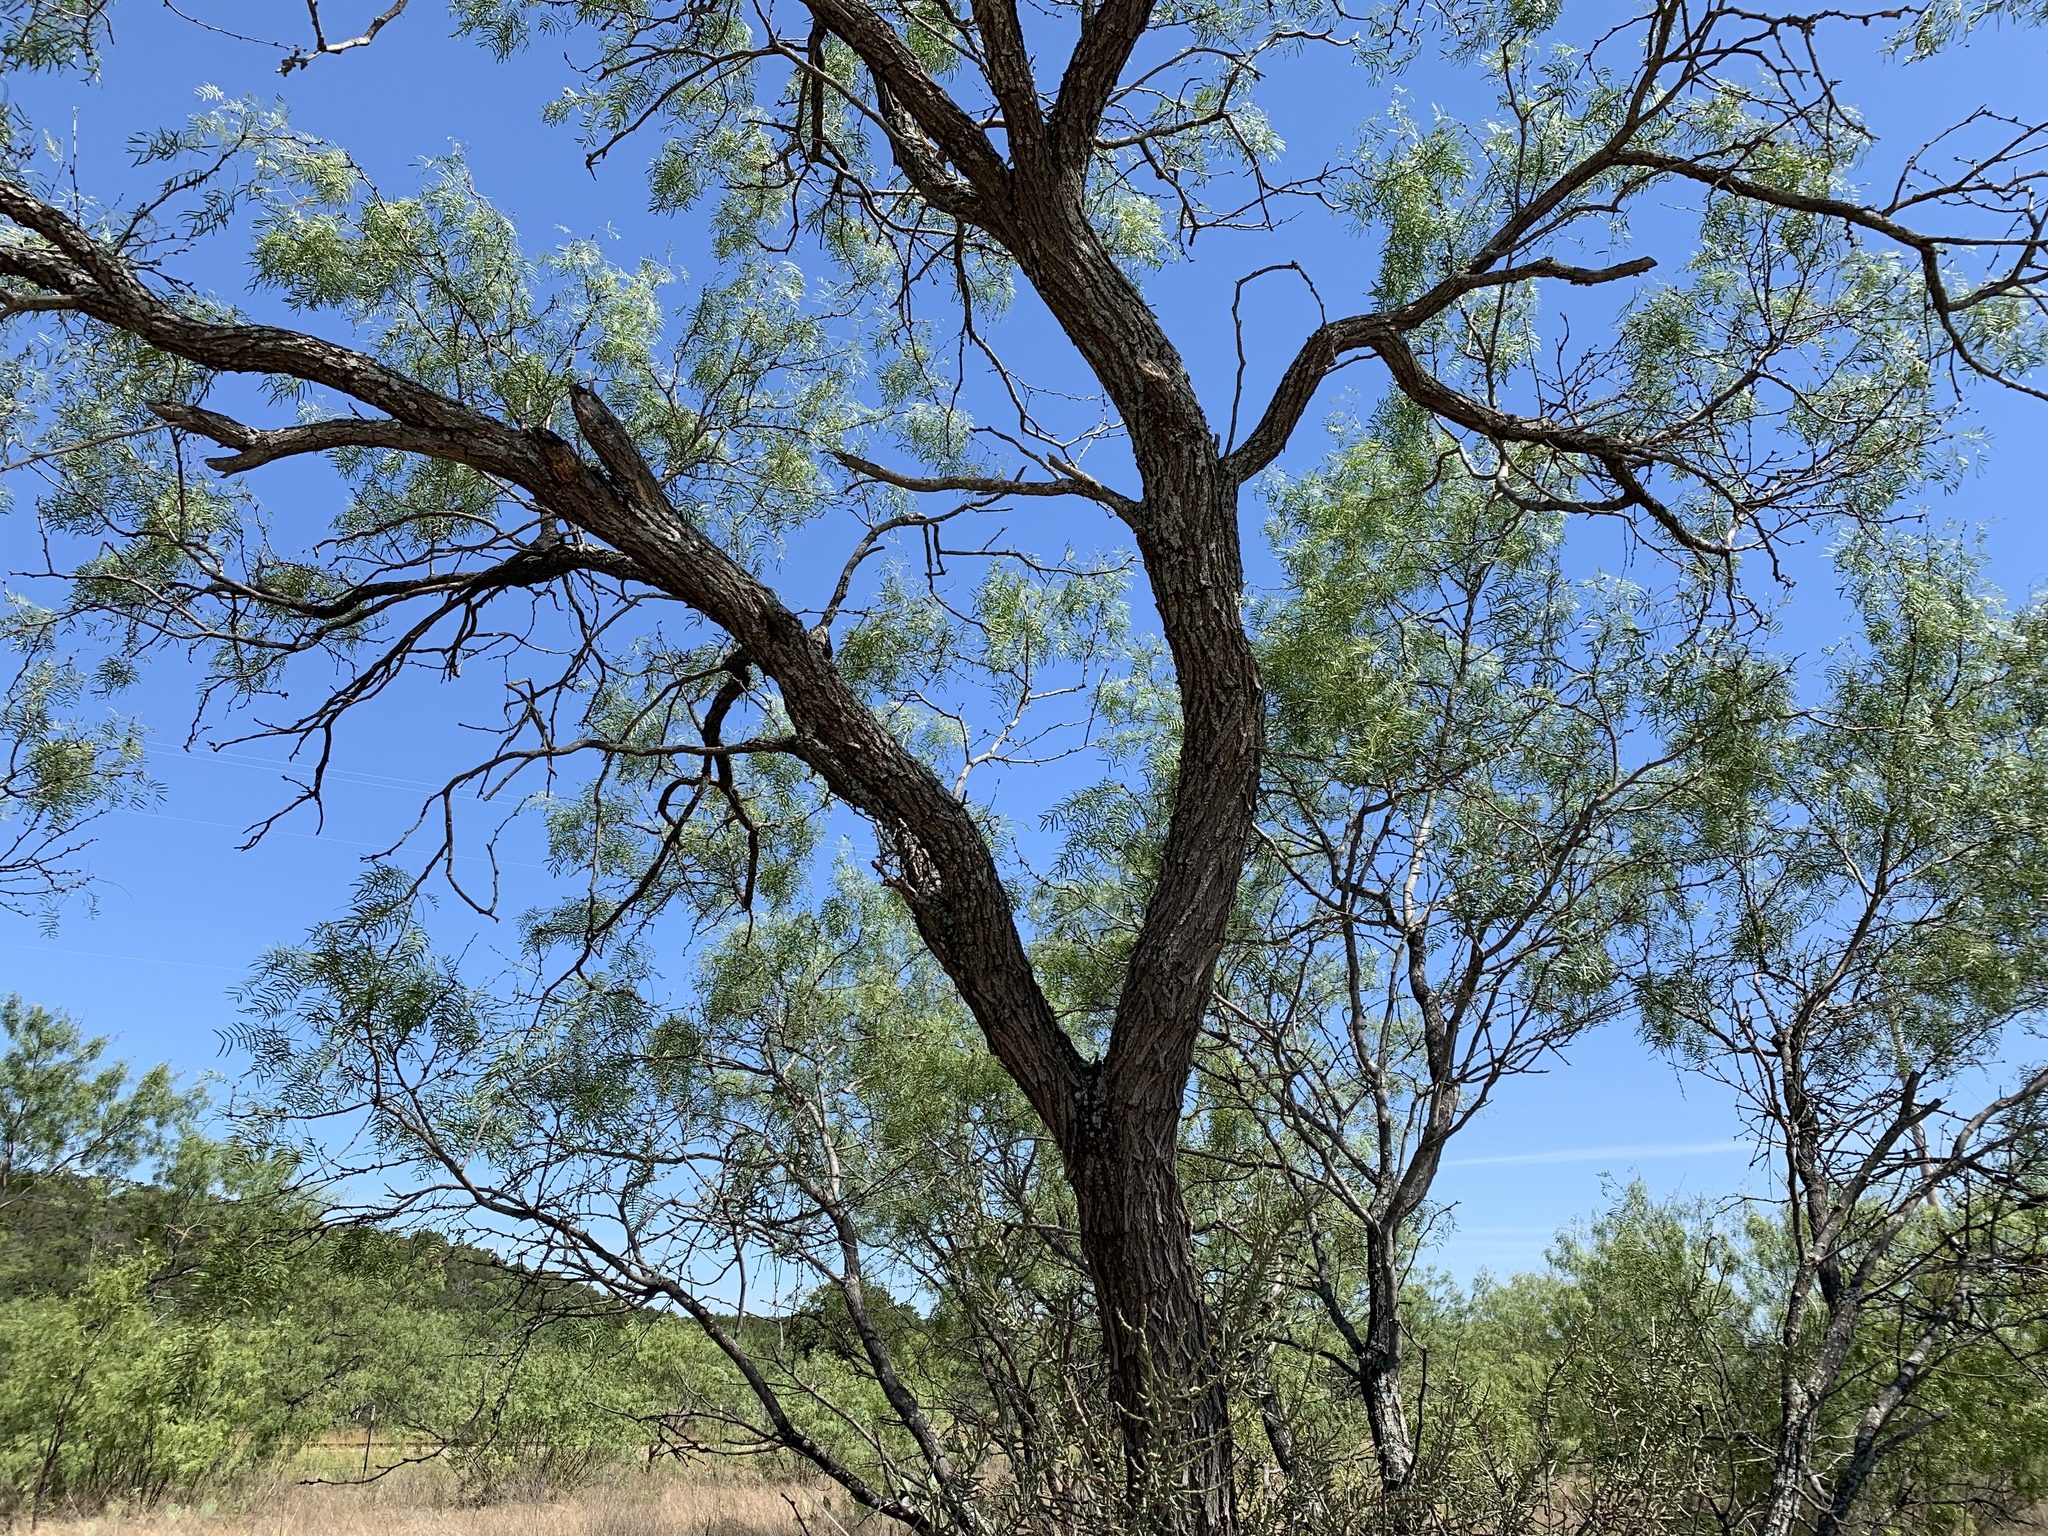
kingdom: Plantae
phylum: Tracheophyta
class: Magnoliopsida
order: Fabales
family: Fabaceae
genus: Prosopis
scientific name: Prosopis glandulosa
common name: Honey mesquite
